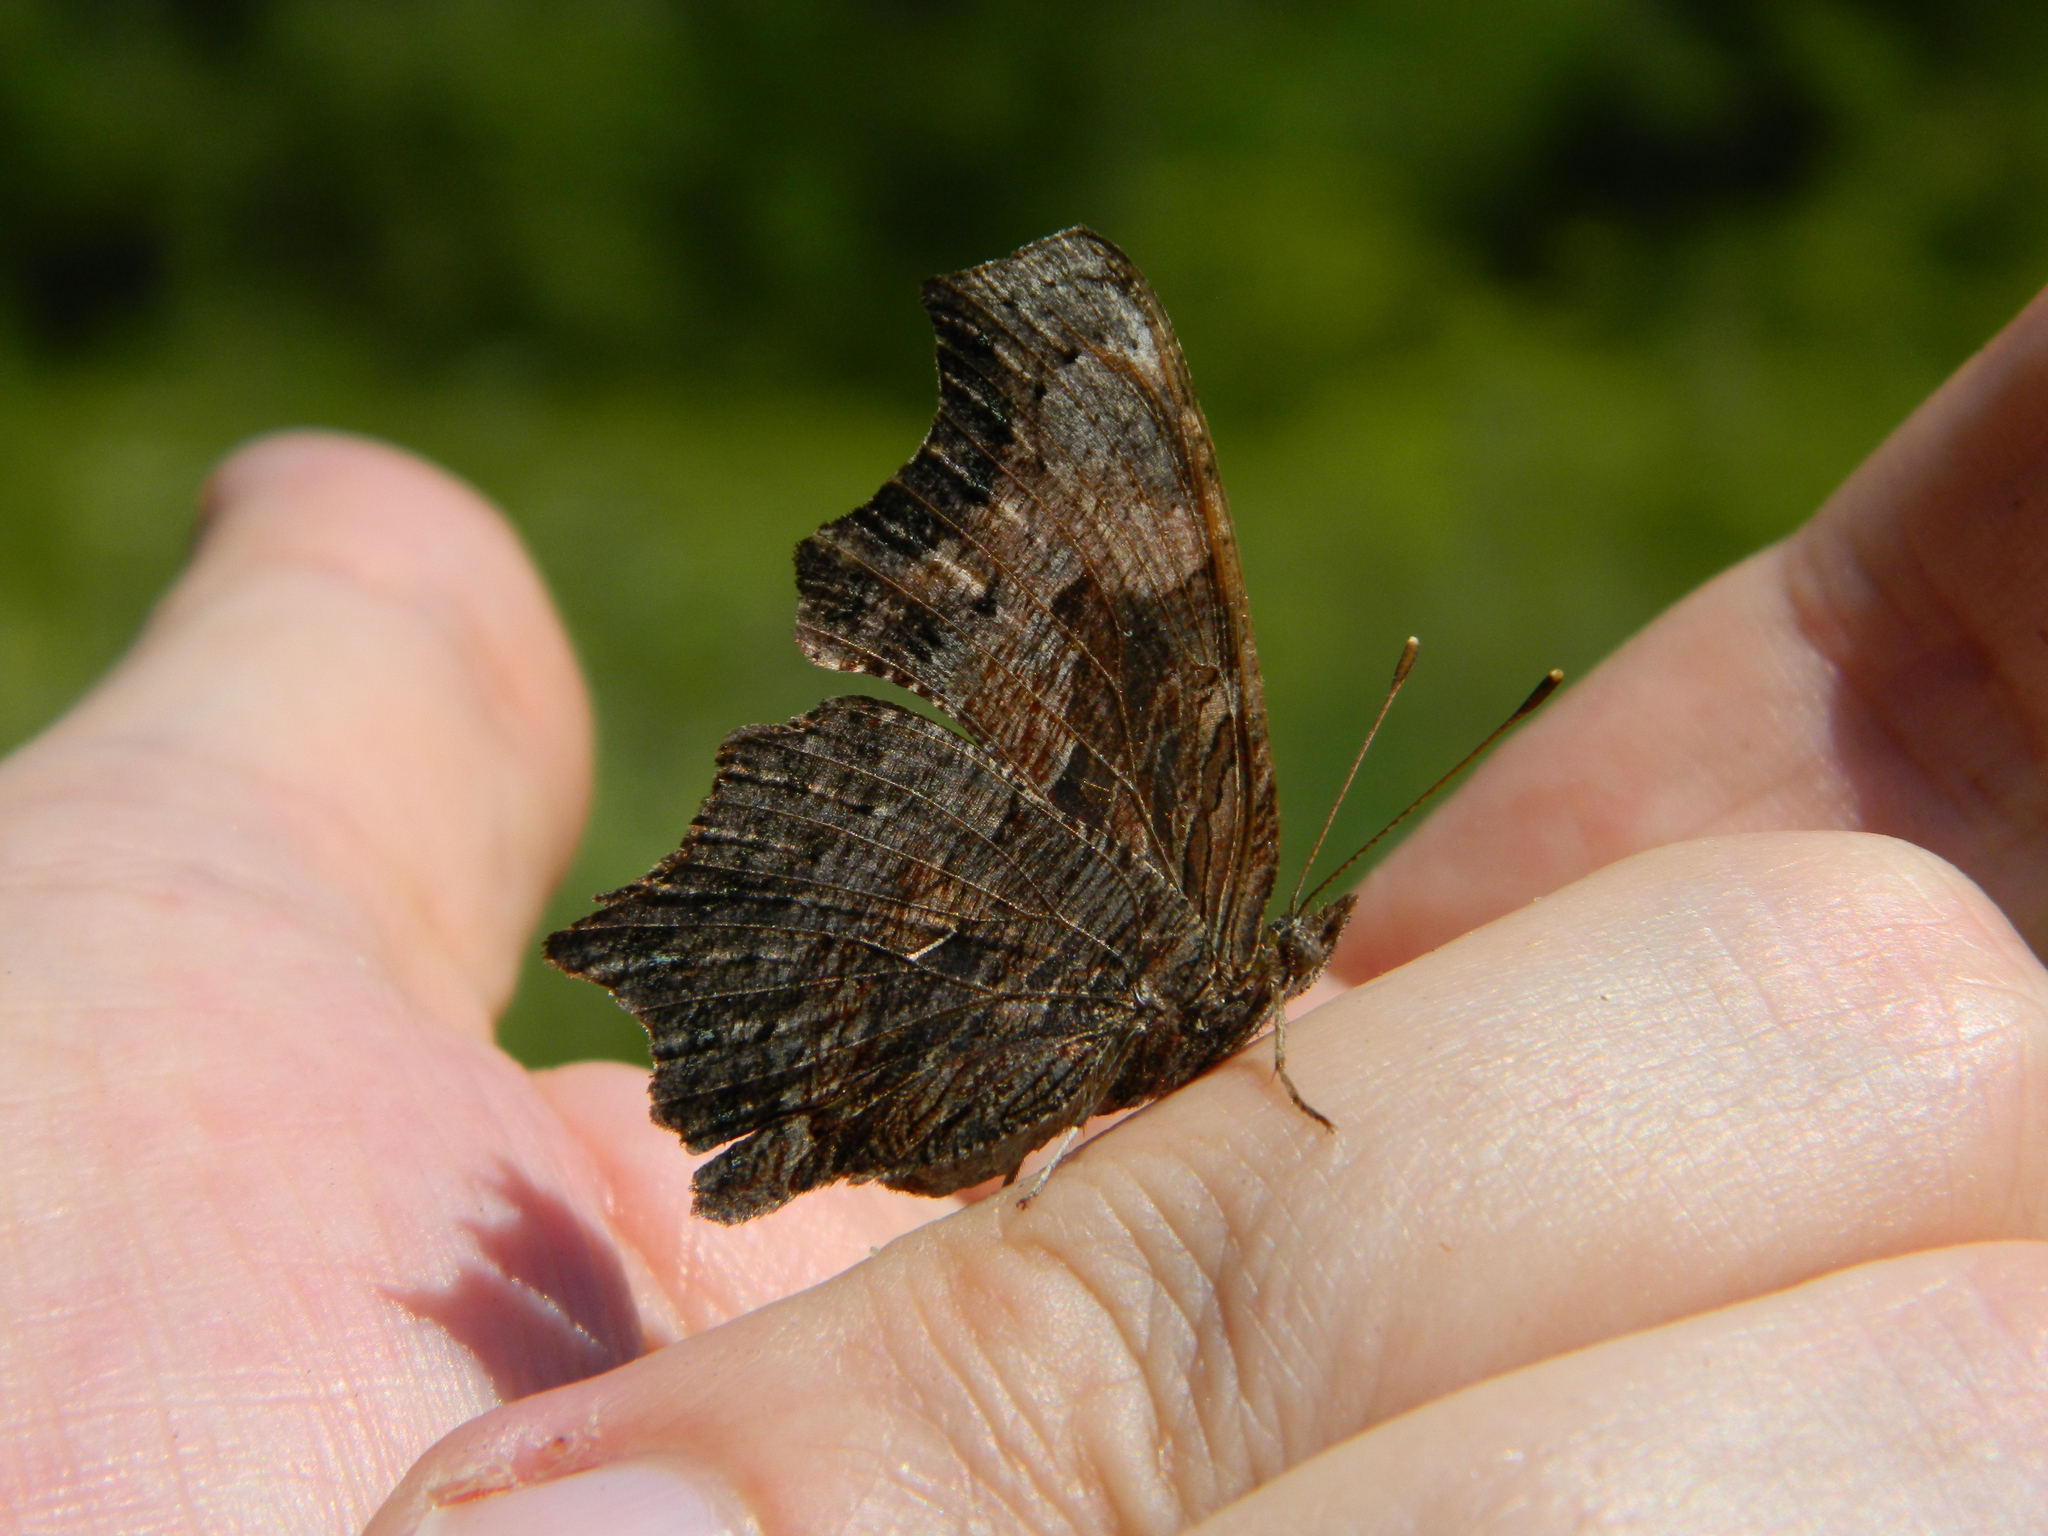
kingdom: Animalia
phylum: Arthropoda
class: Insecta
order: Lepidoptera
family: Nymphalidae
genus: Polygonia
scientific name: Polygonia progne
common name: Gray comma
